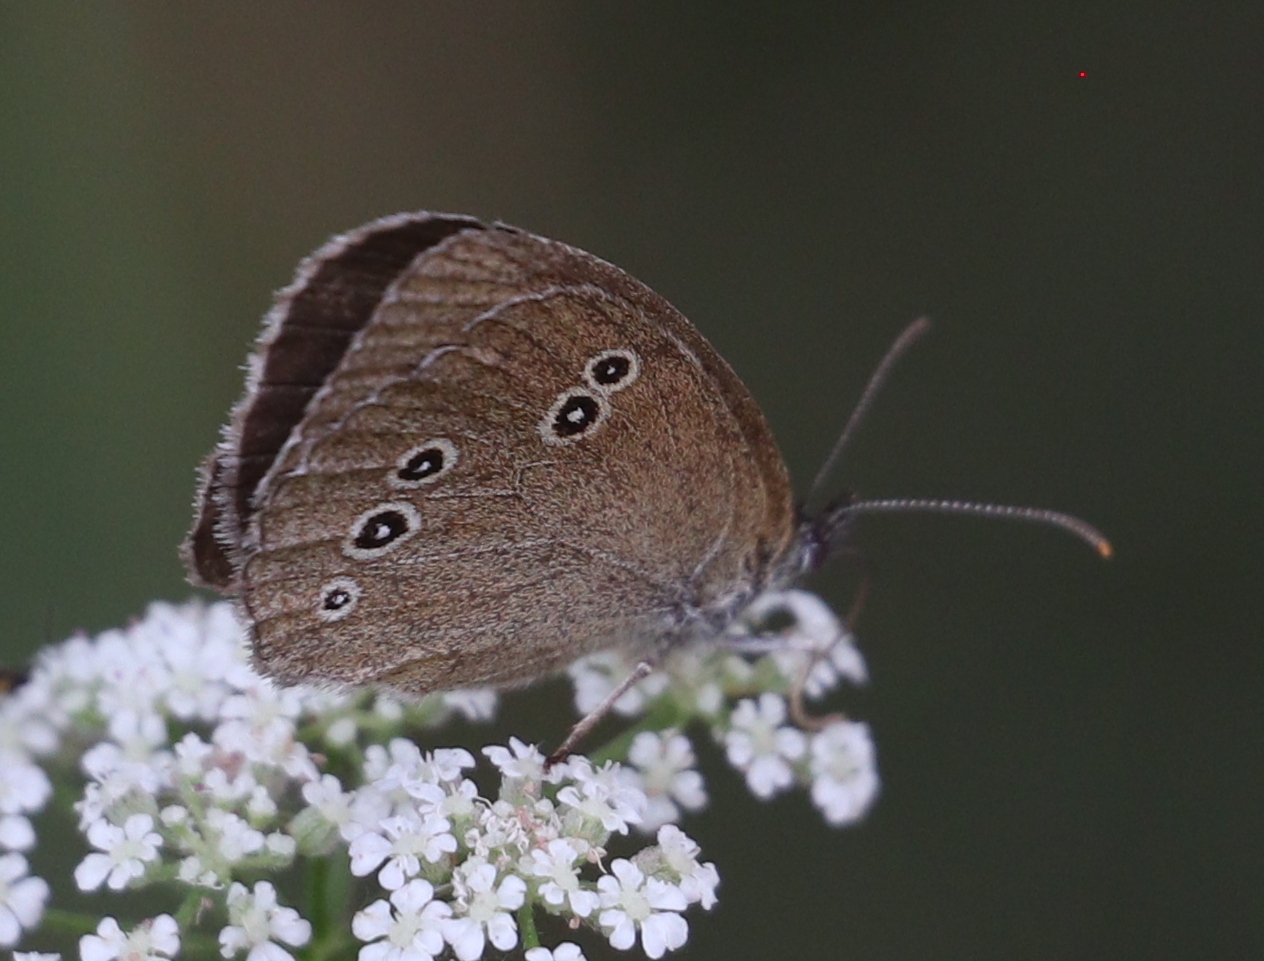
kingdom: Animalia
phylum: Arthropoda
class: Insecta
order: Lepidoptera
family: Nymphalidae
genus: Aphantopus
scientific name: Aphantopus hyperantus
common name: Ringlet
